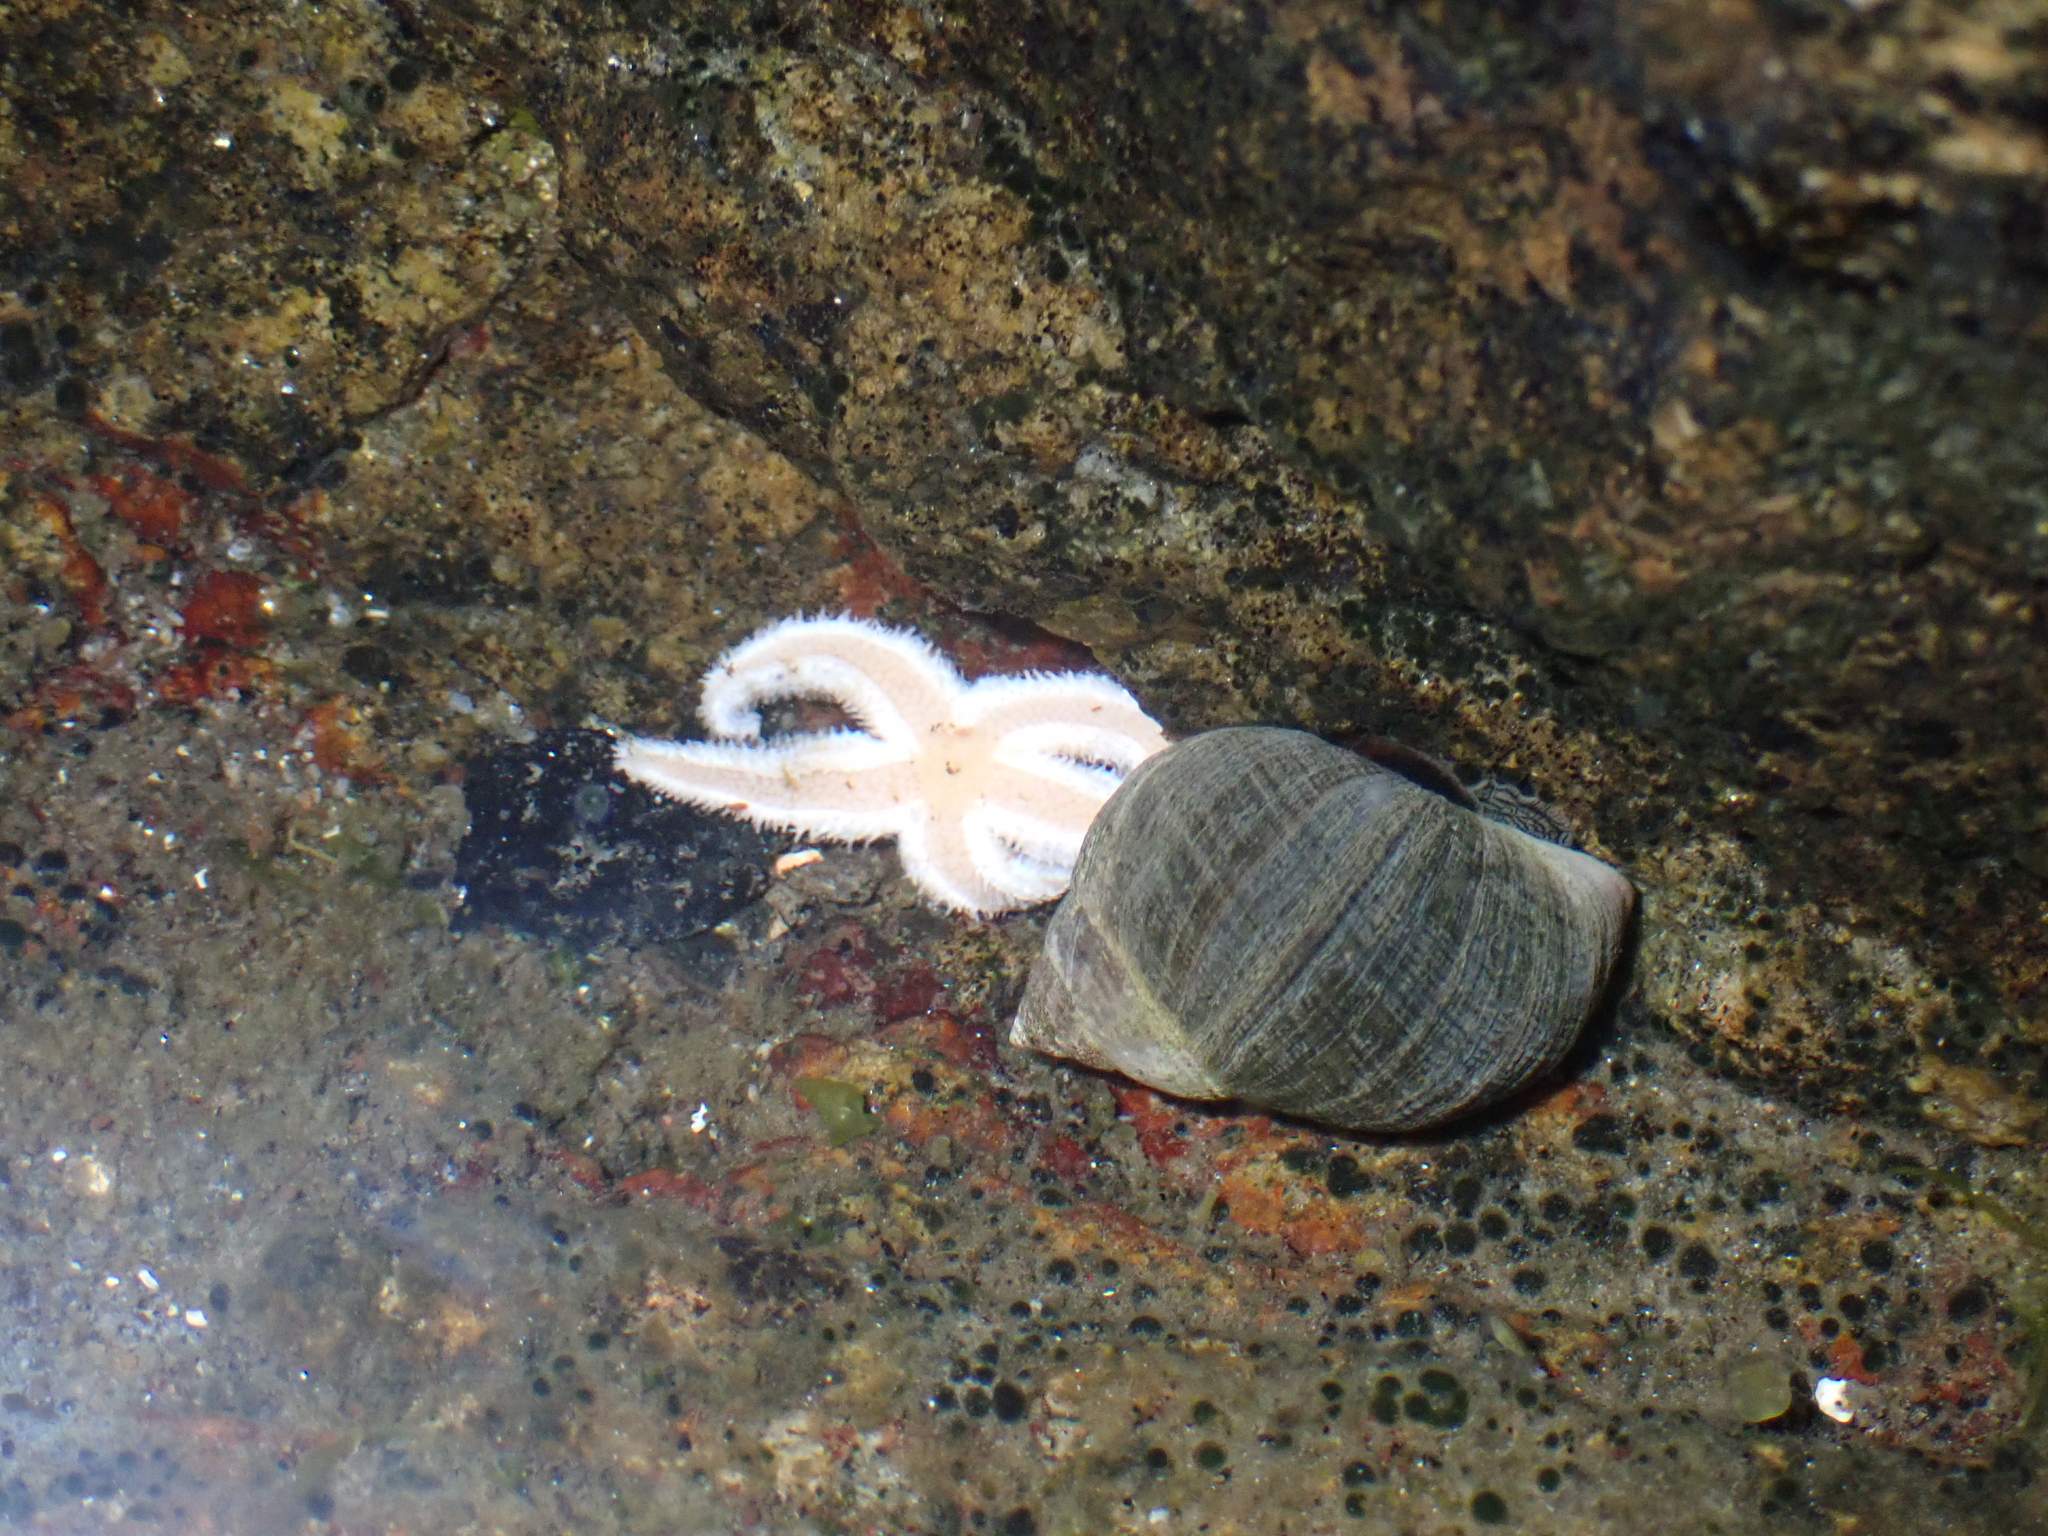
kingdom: Animalia
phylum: Echinodermata
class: Asteroidea
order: Forcipulatida
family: Asteriidae
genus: Asterias
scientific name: Asterias rubens
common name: Common starfish
